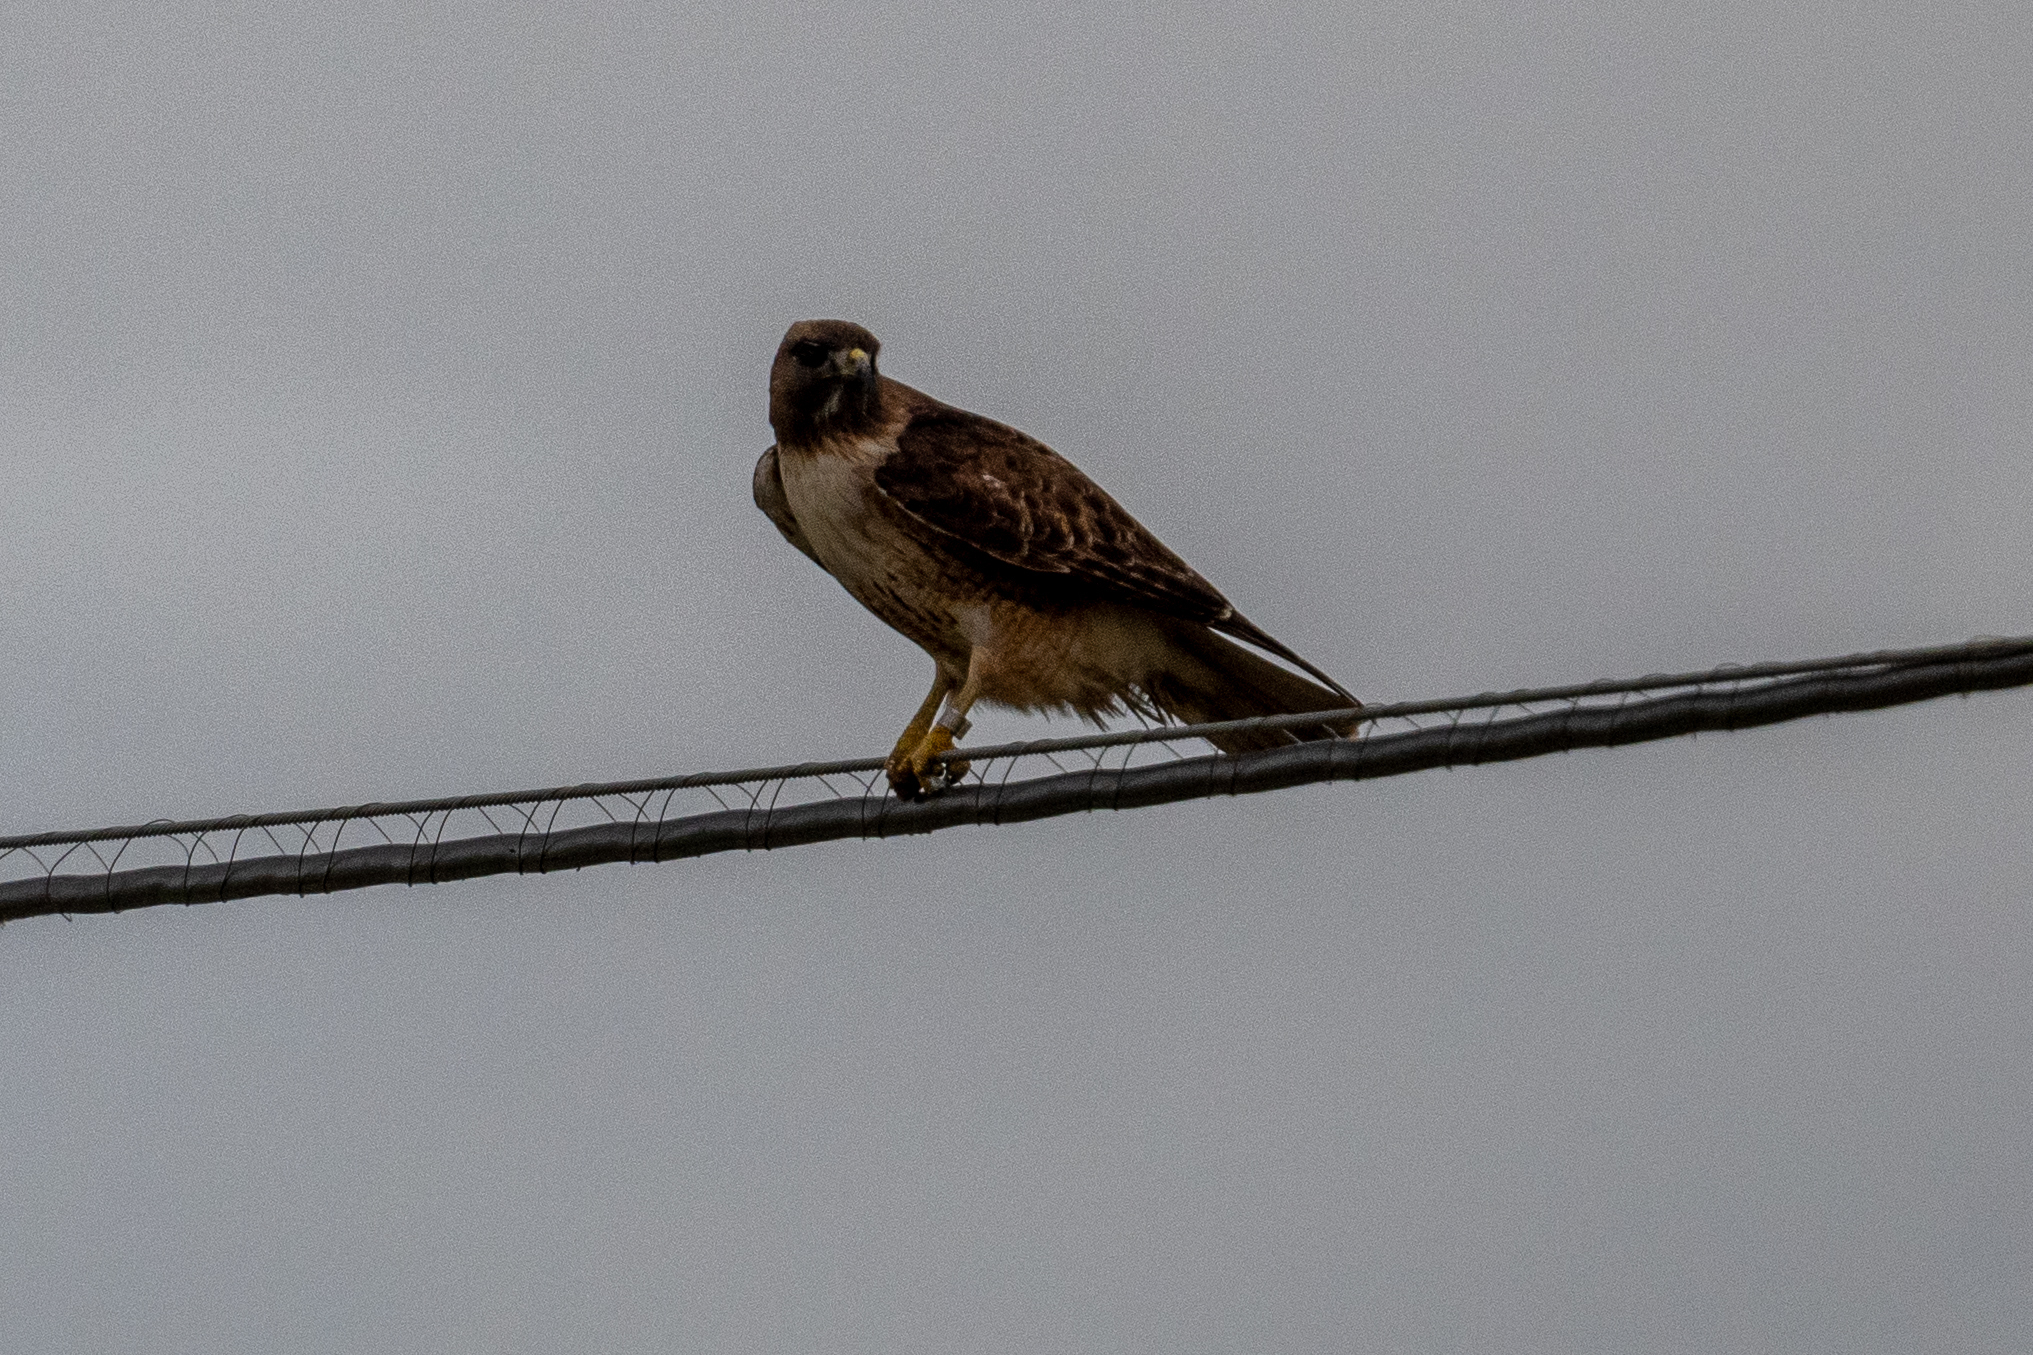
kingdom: Animalia
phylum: Chordata
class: Aves
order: Accipitriformes
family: Accipitridae
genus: Buteo
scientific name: Buteo jamaicensis
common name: Red-tailed hawk
